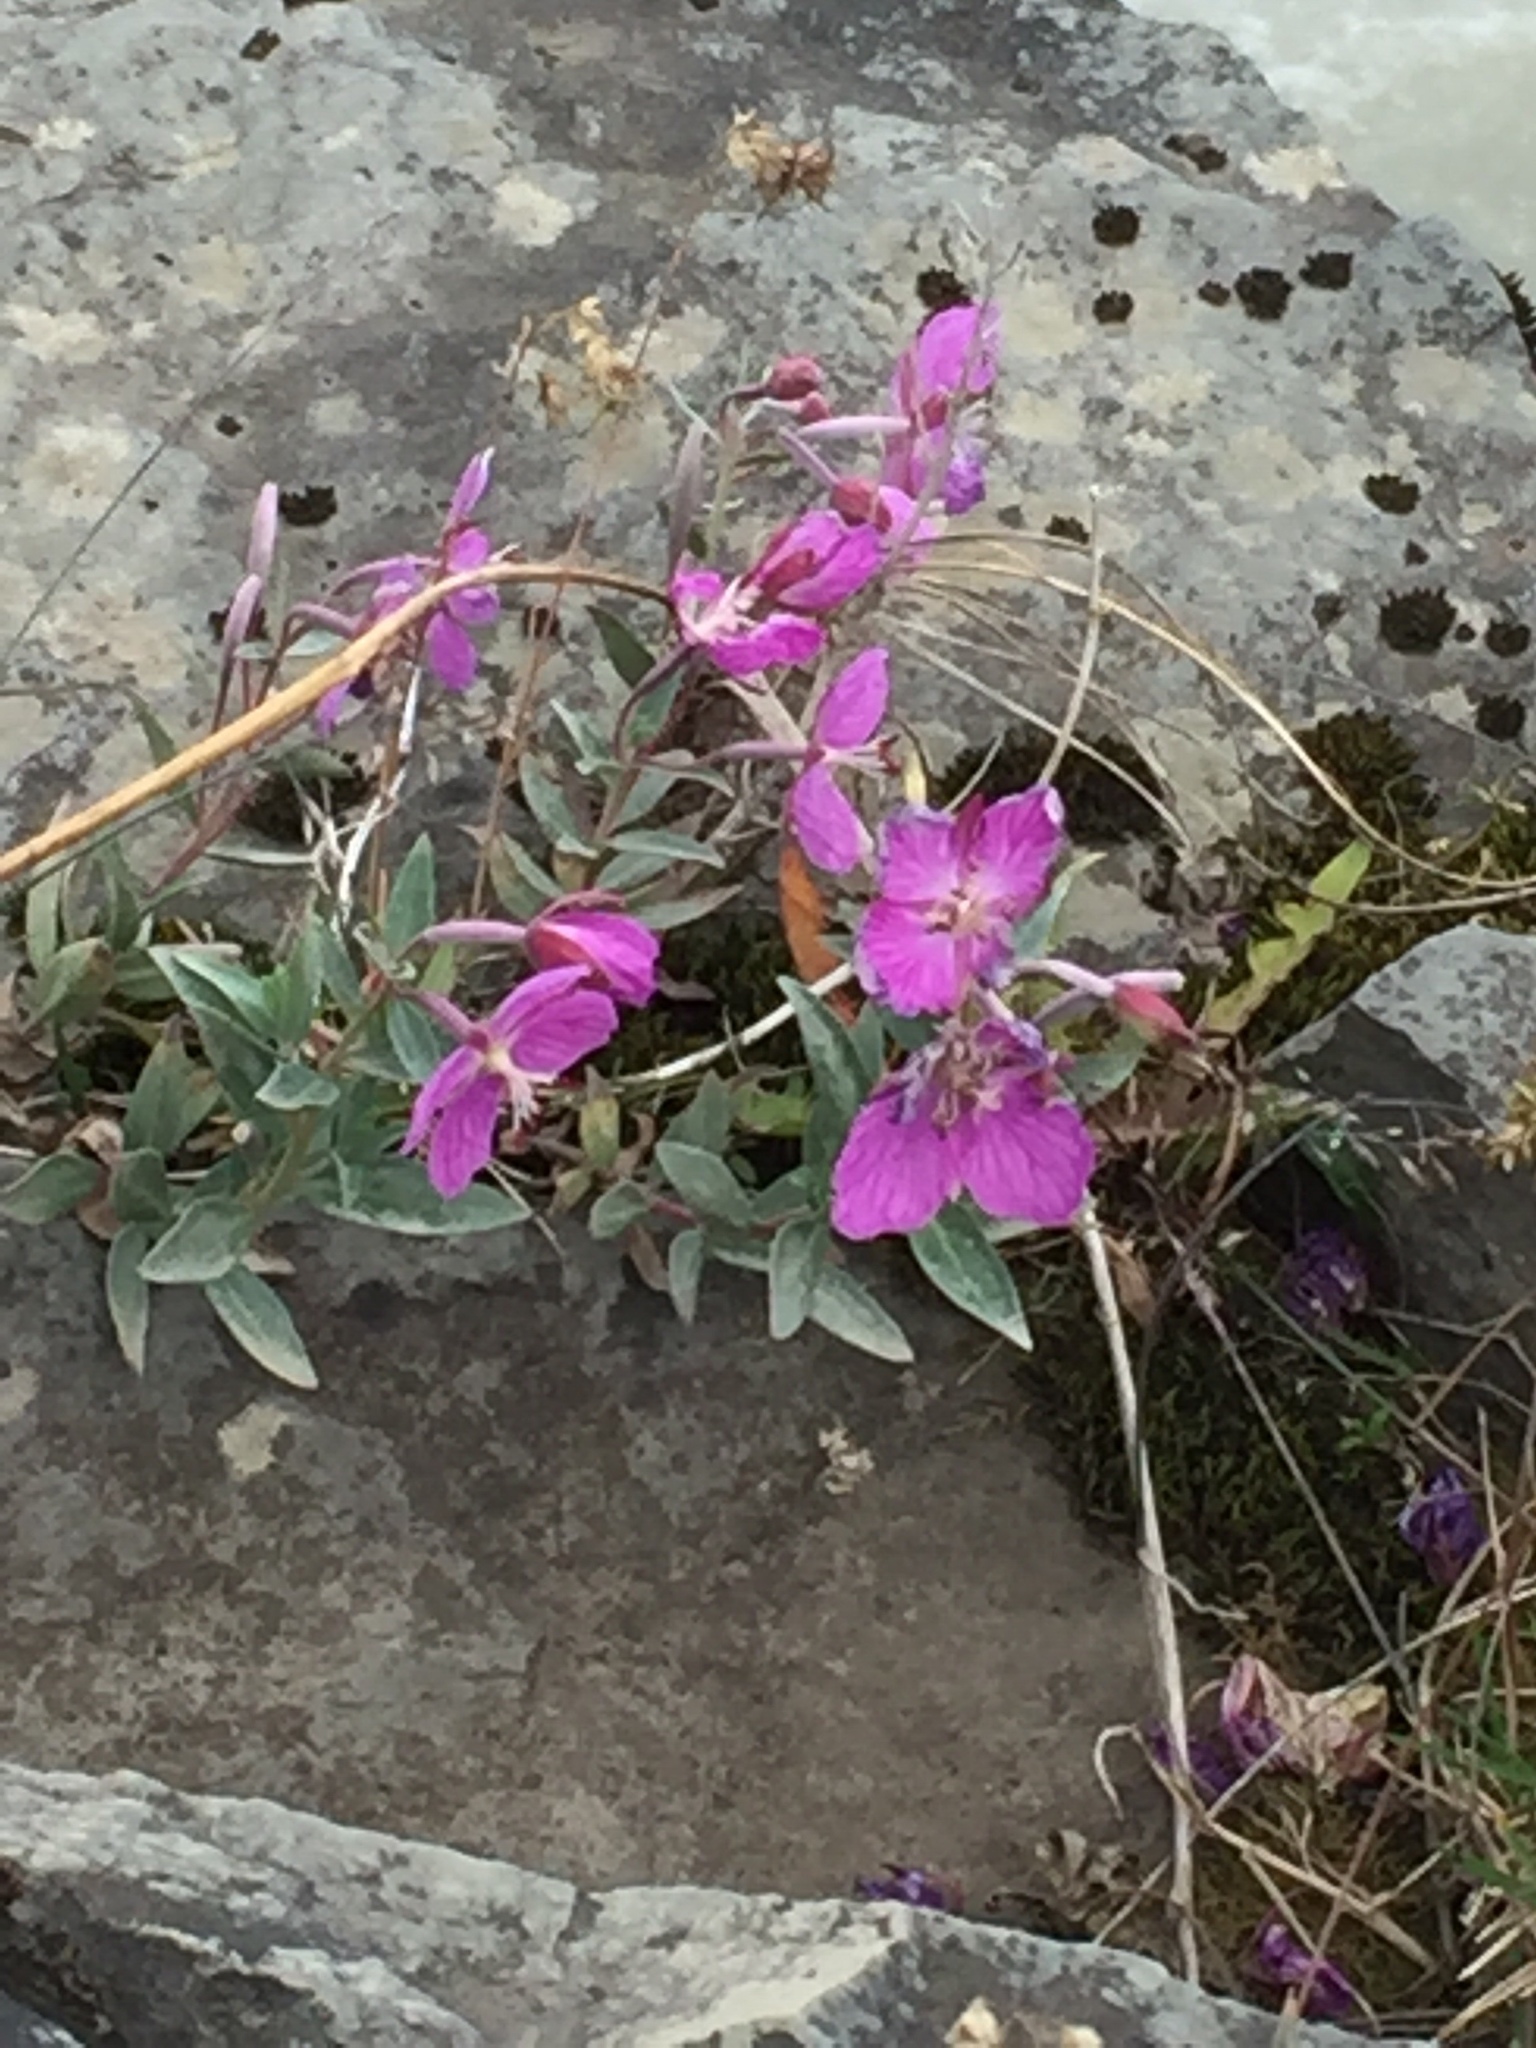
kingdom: Plantae
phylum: Tracheophyta
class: Magnoliopsida
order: Myrtales
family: Onagraceae
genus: Chamaenerion
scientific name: Chamaenerion latifolium
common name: Dwarf fireweed
